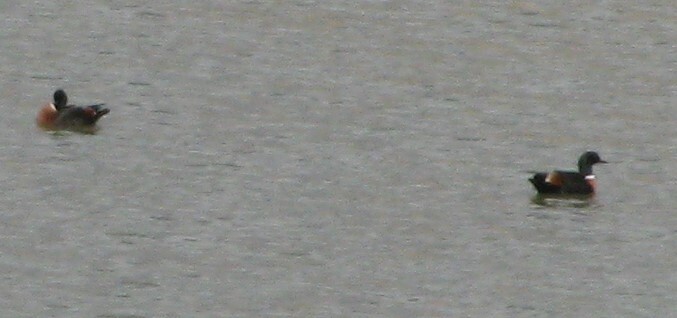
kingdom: Animalia
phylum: Chordata
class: Aves
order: Anseriformes
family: Anatidae
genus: Tadorna
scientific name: Tadorna tadornoides
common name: Australian shelduck
